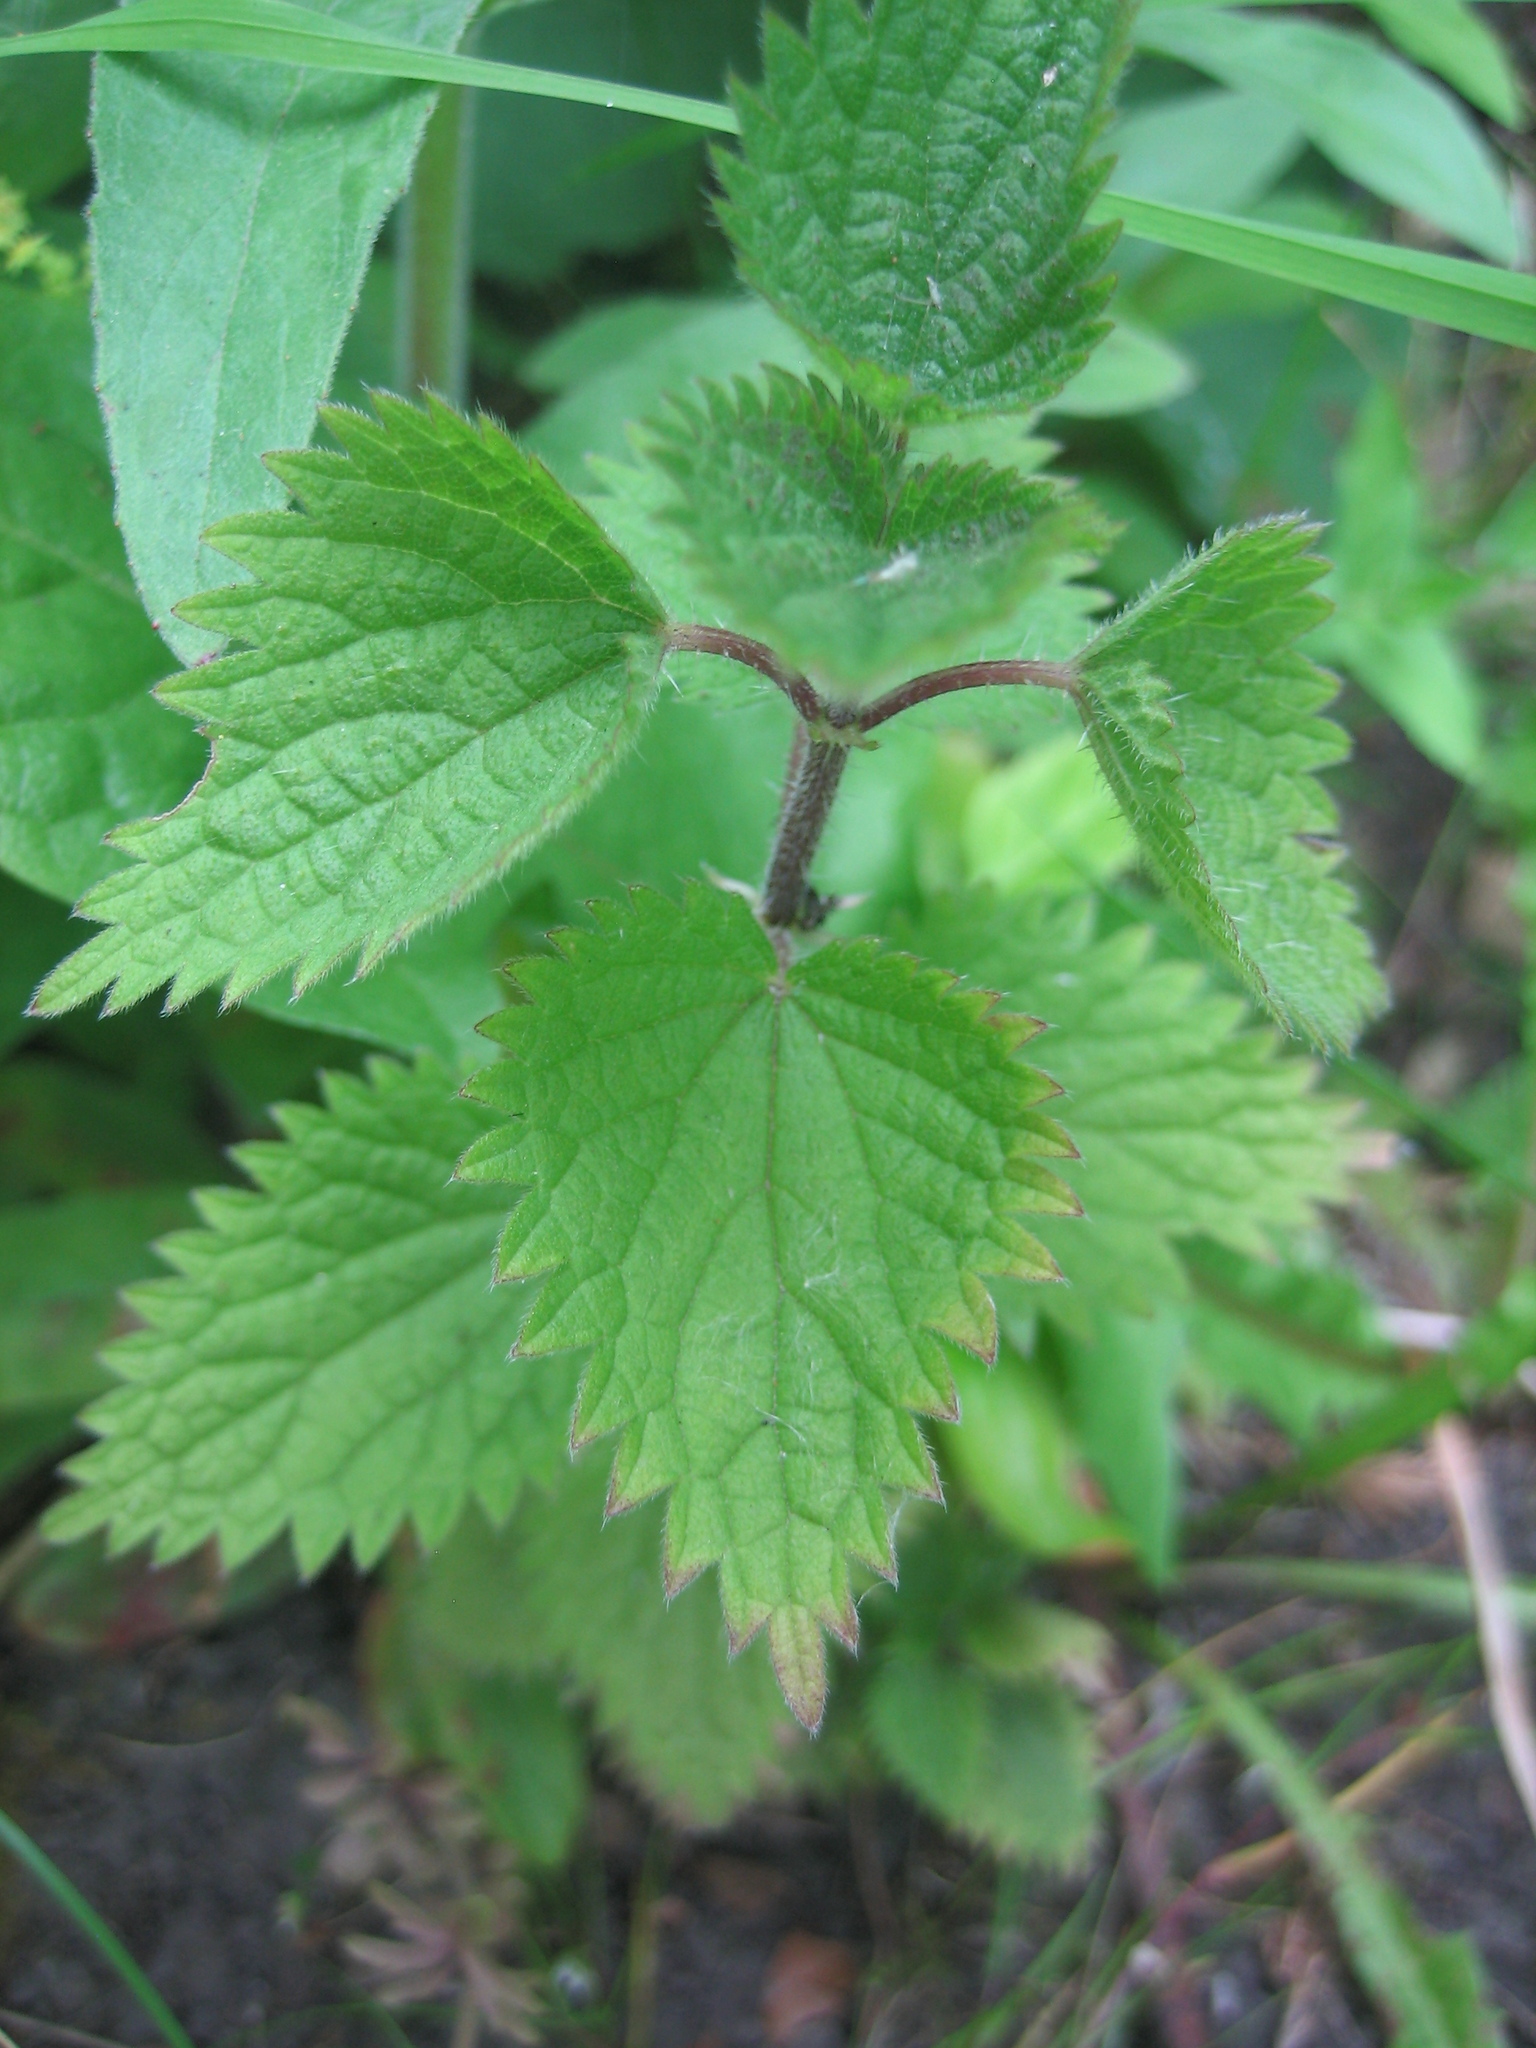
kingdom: Plantae
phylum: Tracheophyta
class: Magnoliopsida
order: Rosales
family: Urticaceae
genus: Urtica
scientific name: Urtica dioica
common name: Common nettle
